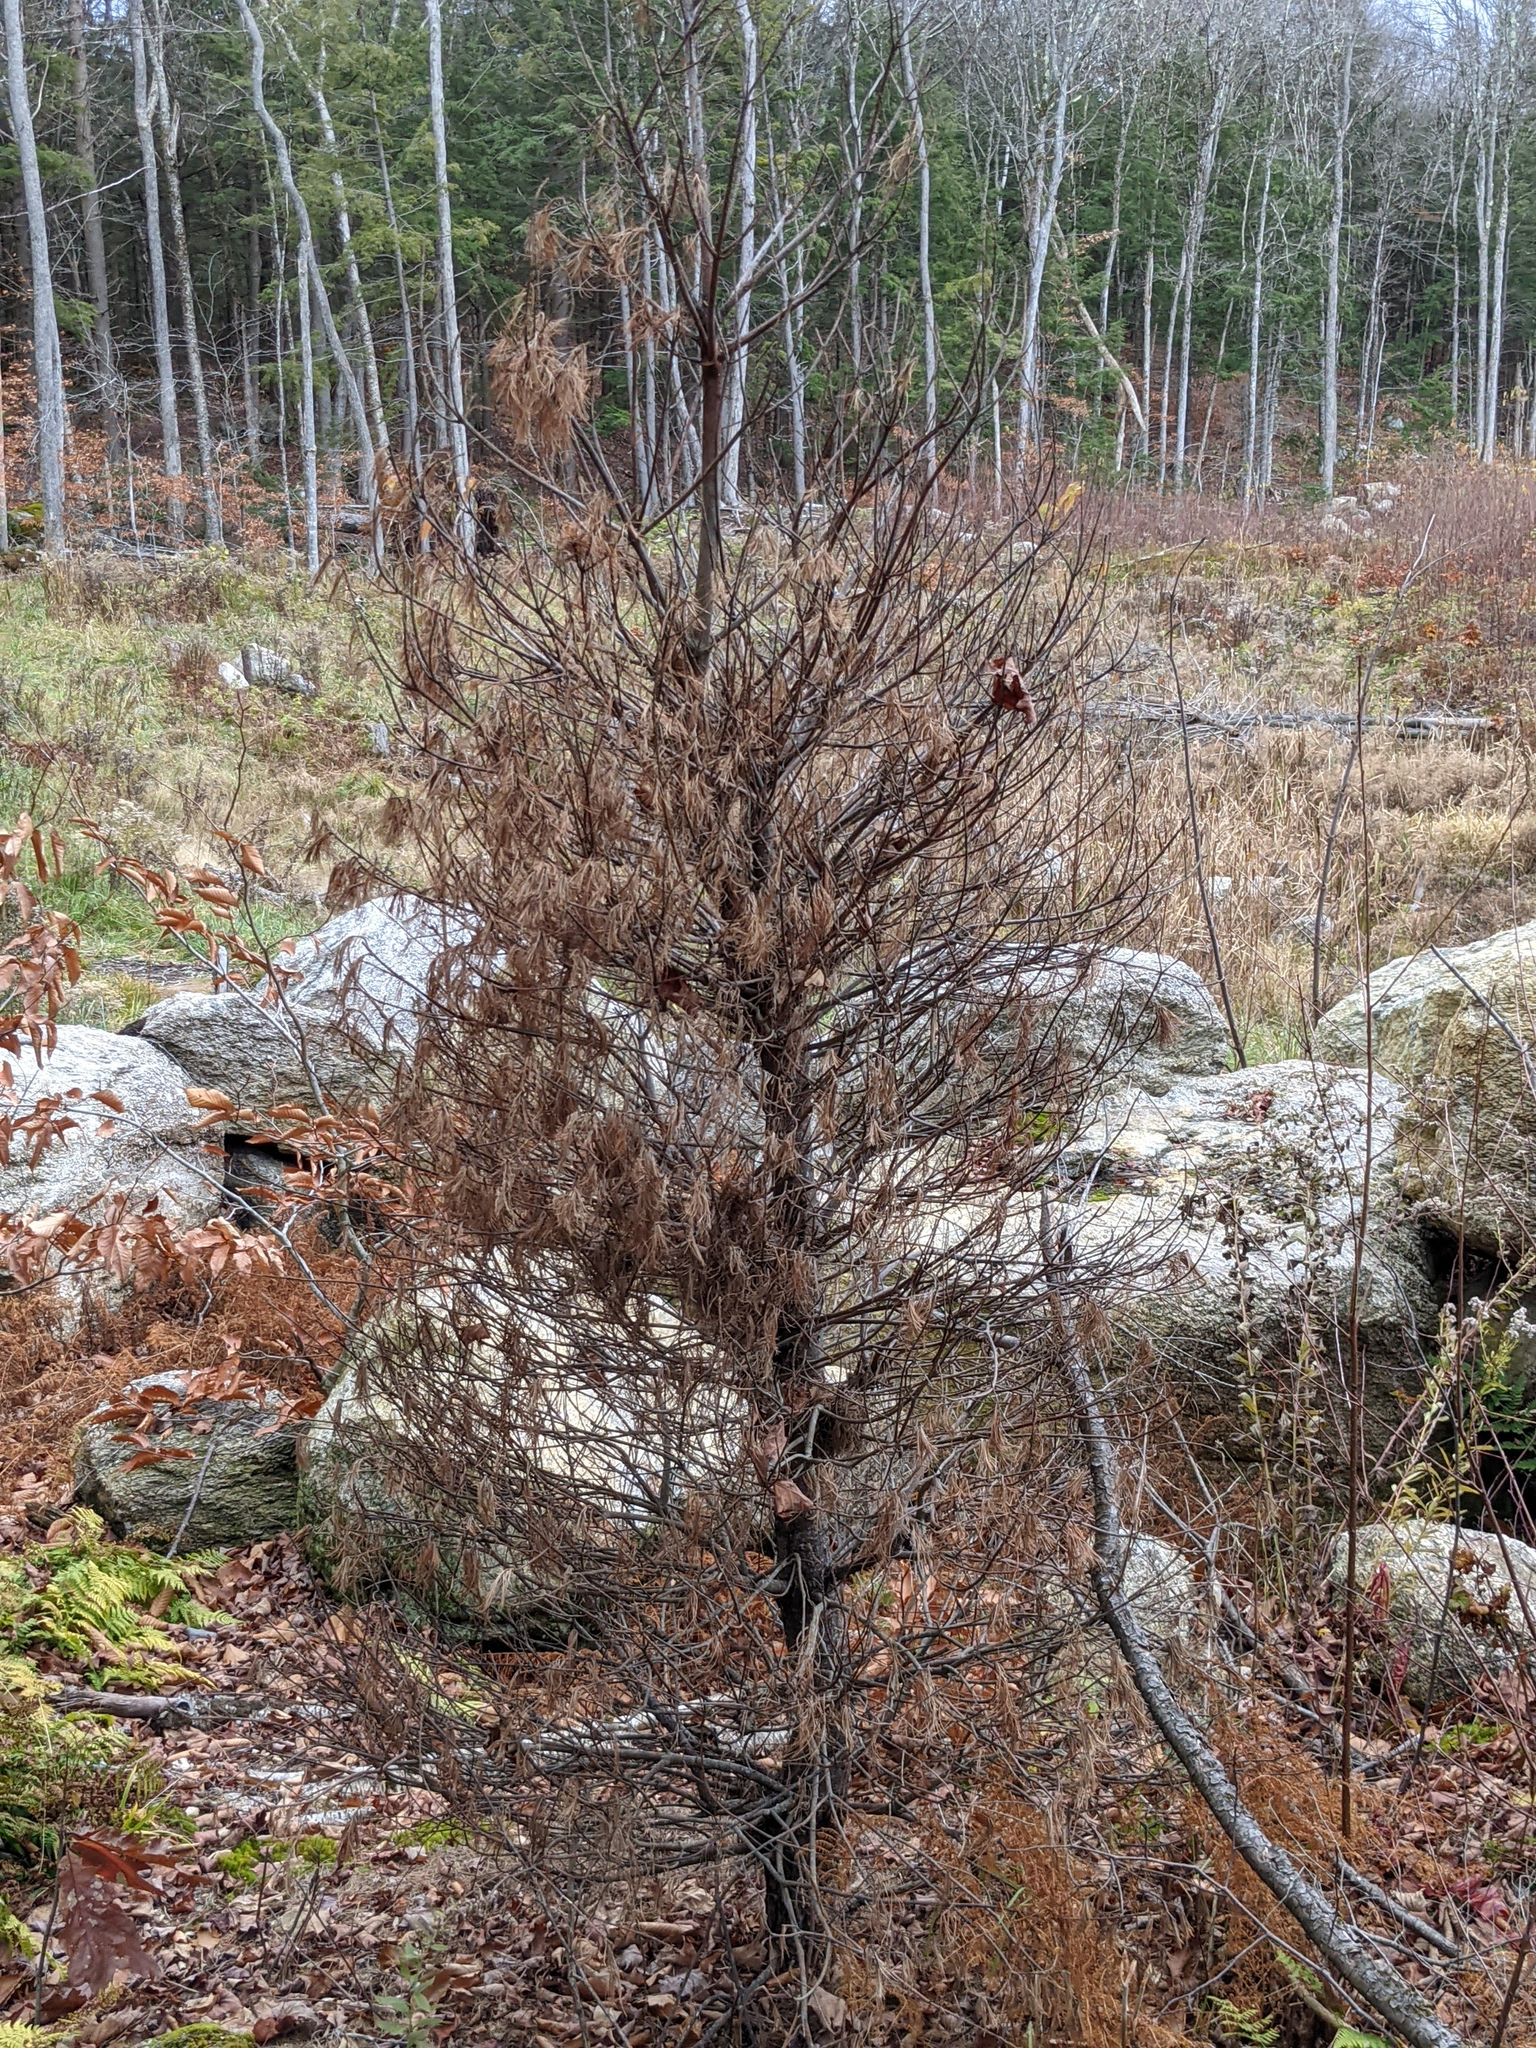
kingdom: Plantae
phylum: Tracheophyta
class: Pinopsida
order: Pinales
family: Pinaceae
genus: Pinus
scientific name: Pinus strobus
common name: Weymouth pine
